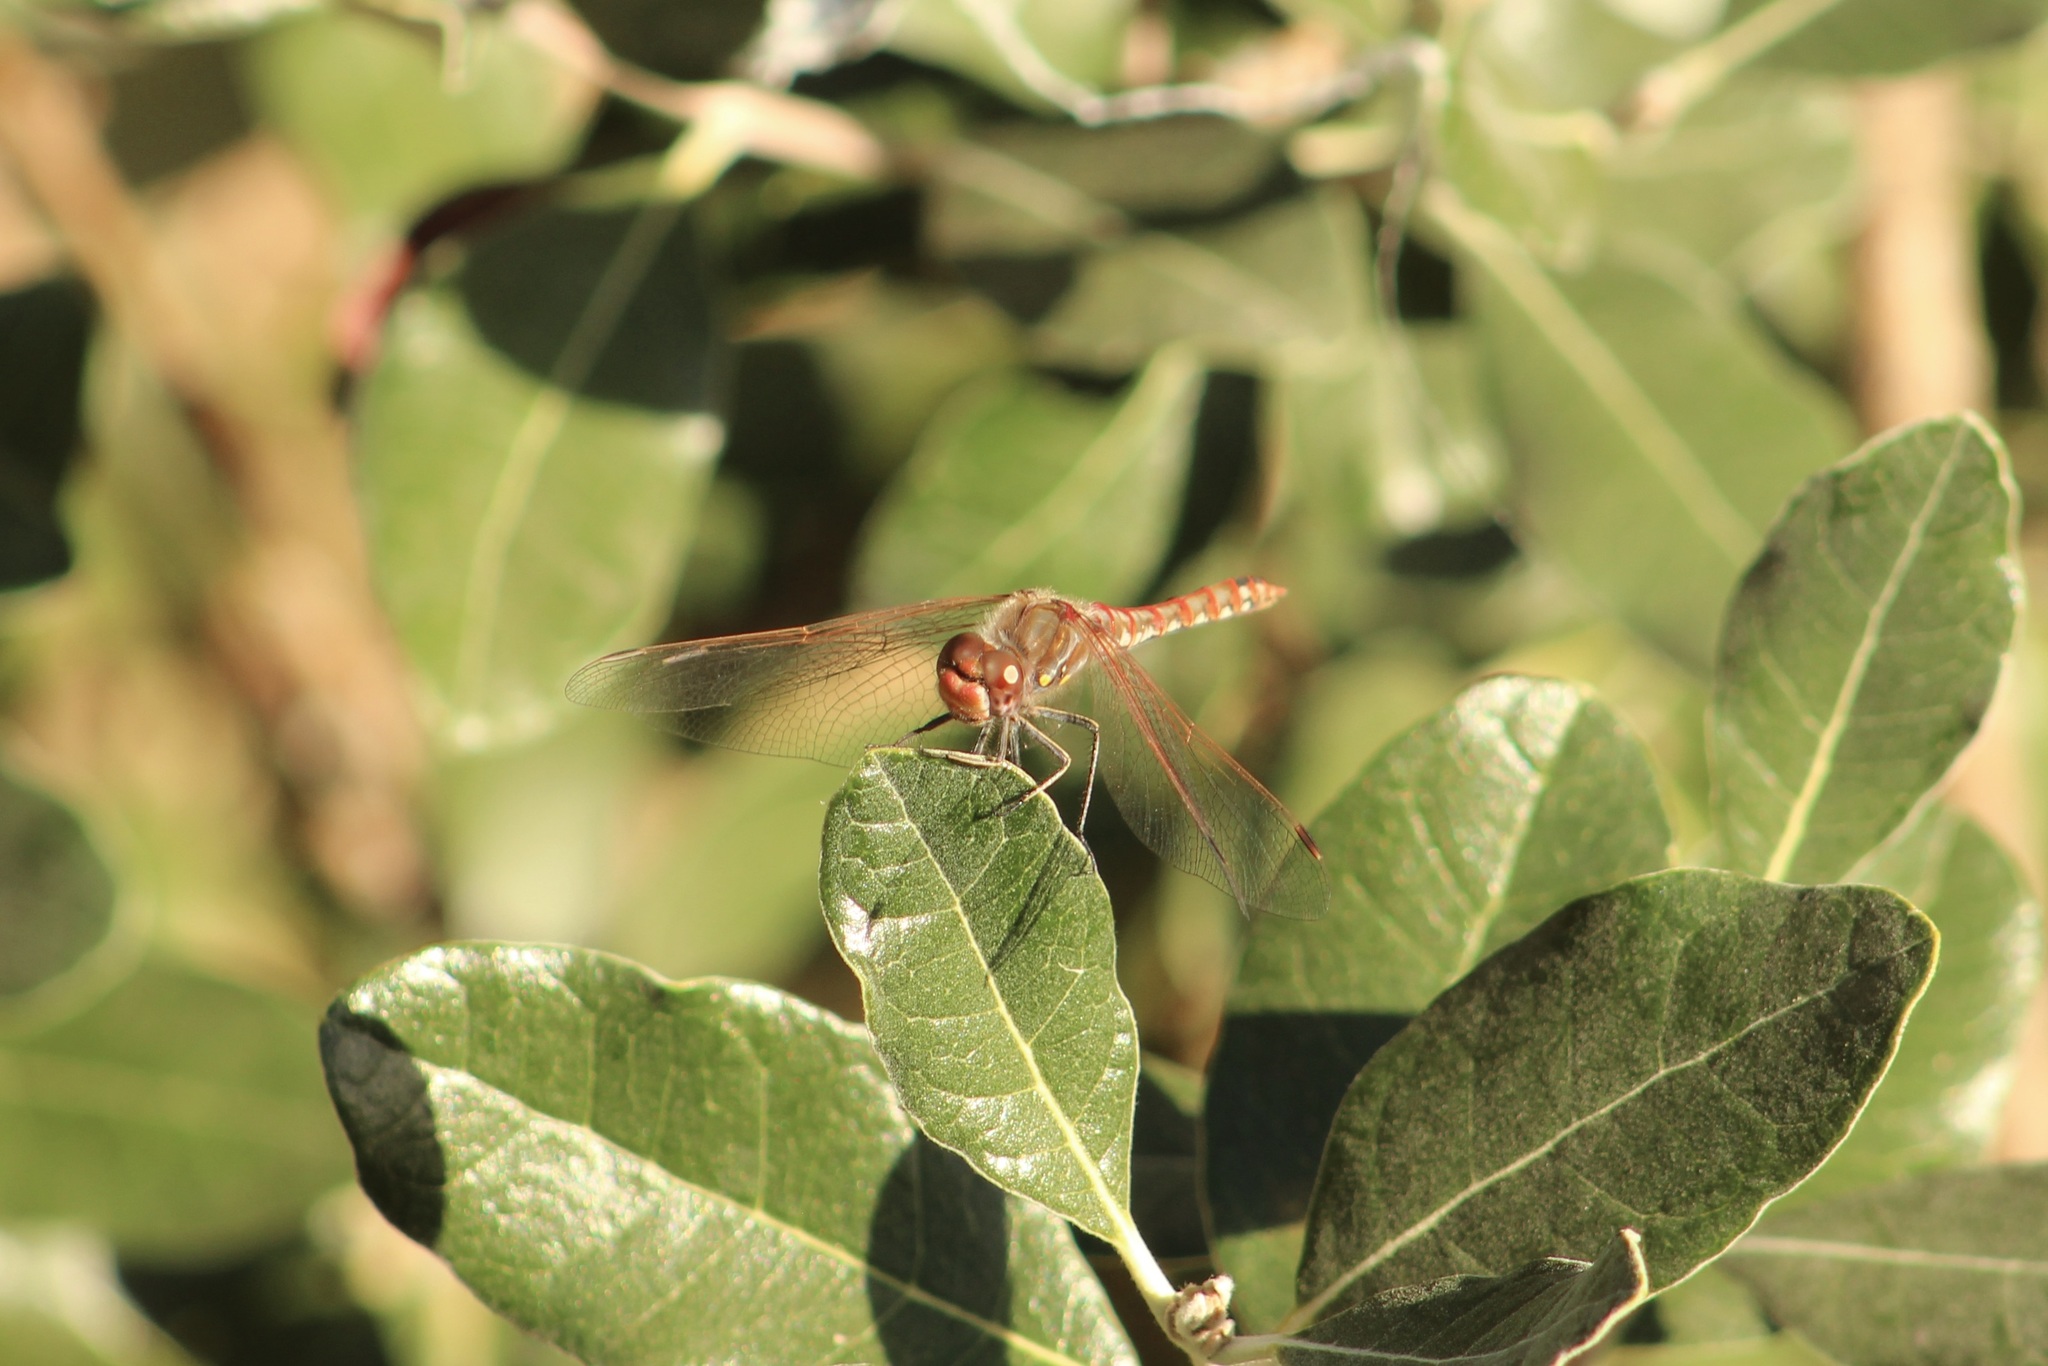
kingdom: Animalia
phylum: Arthropoda
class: Insecta
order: Odonata
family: Libellulidae
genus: Sympetrum
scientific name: Sympetrum corruptum
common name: Variegated meadowhawk
